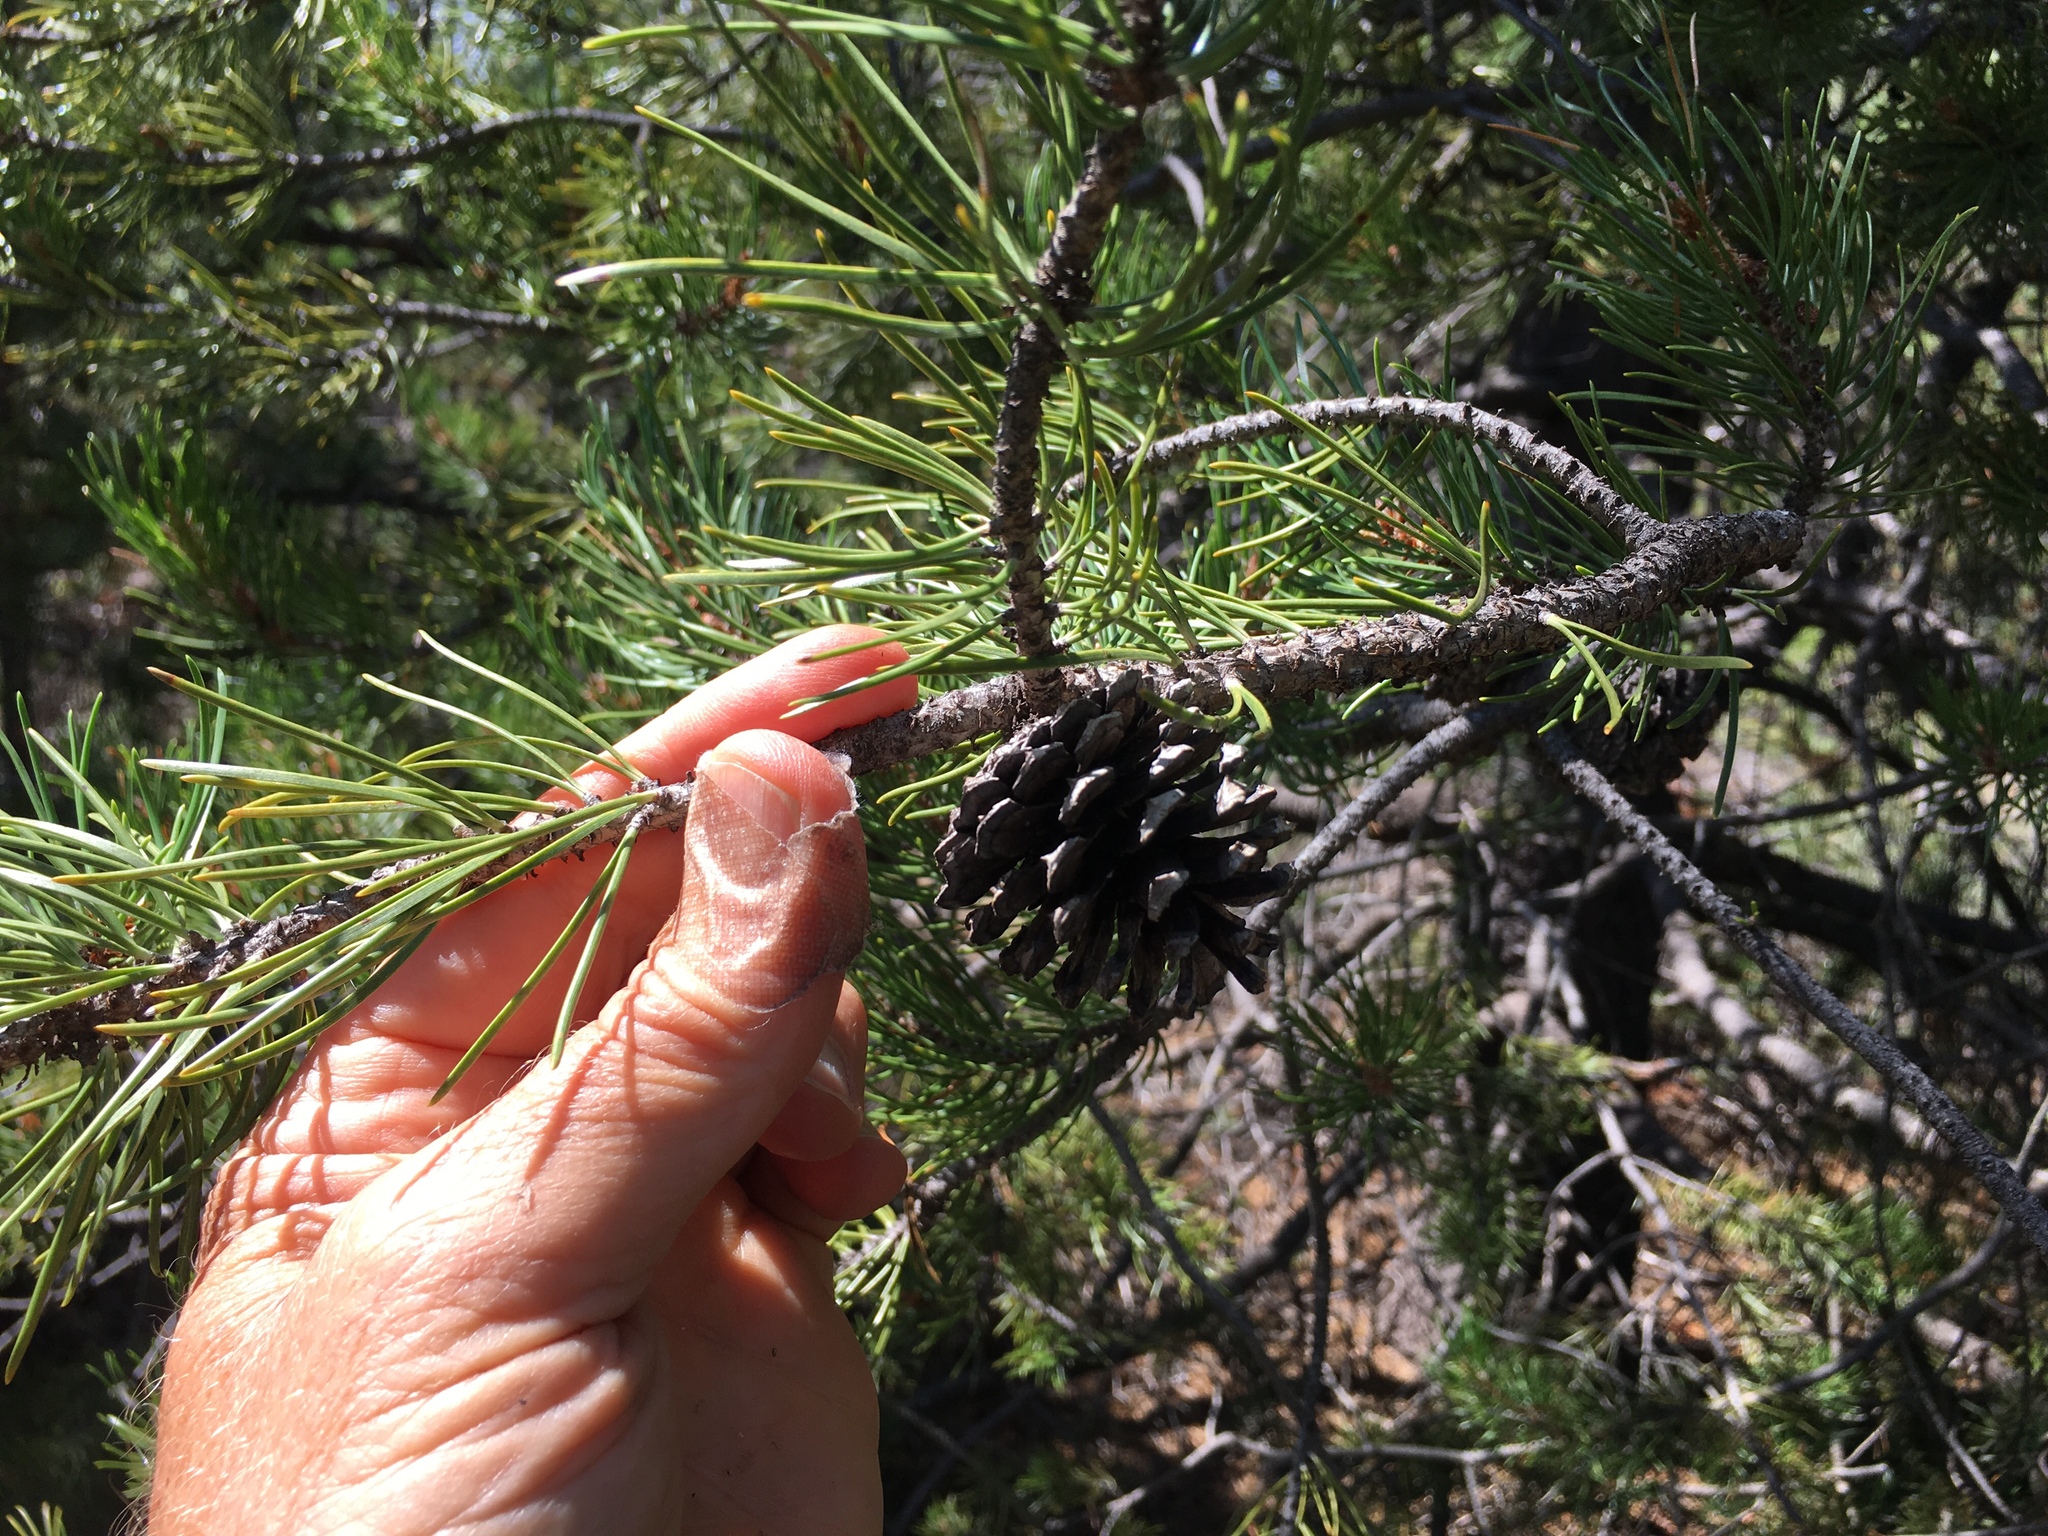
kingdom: Plantae
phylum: Tracheophyta
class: Pinopsida
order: Pinales
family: Pinaceae
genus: Pinus
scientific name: Pinus contorta
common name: Lodgepole pine
